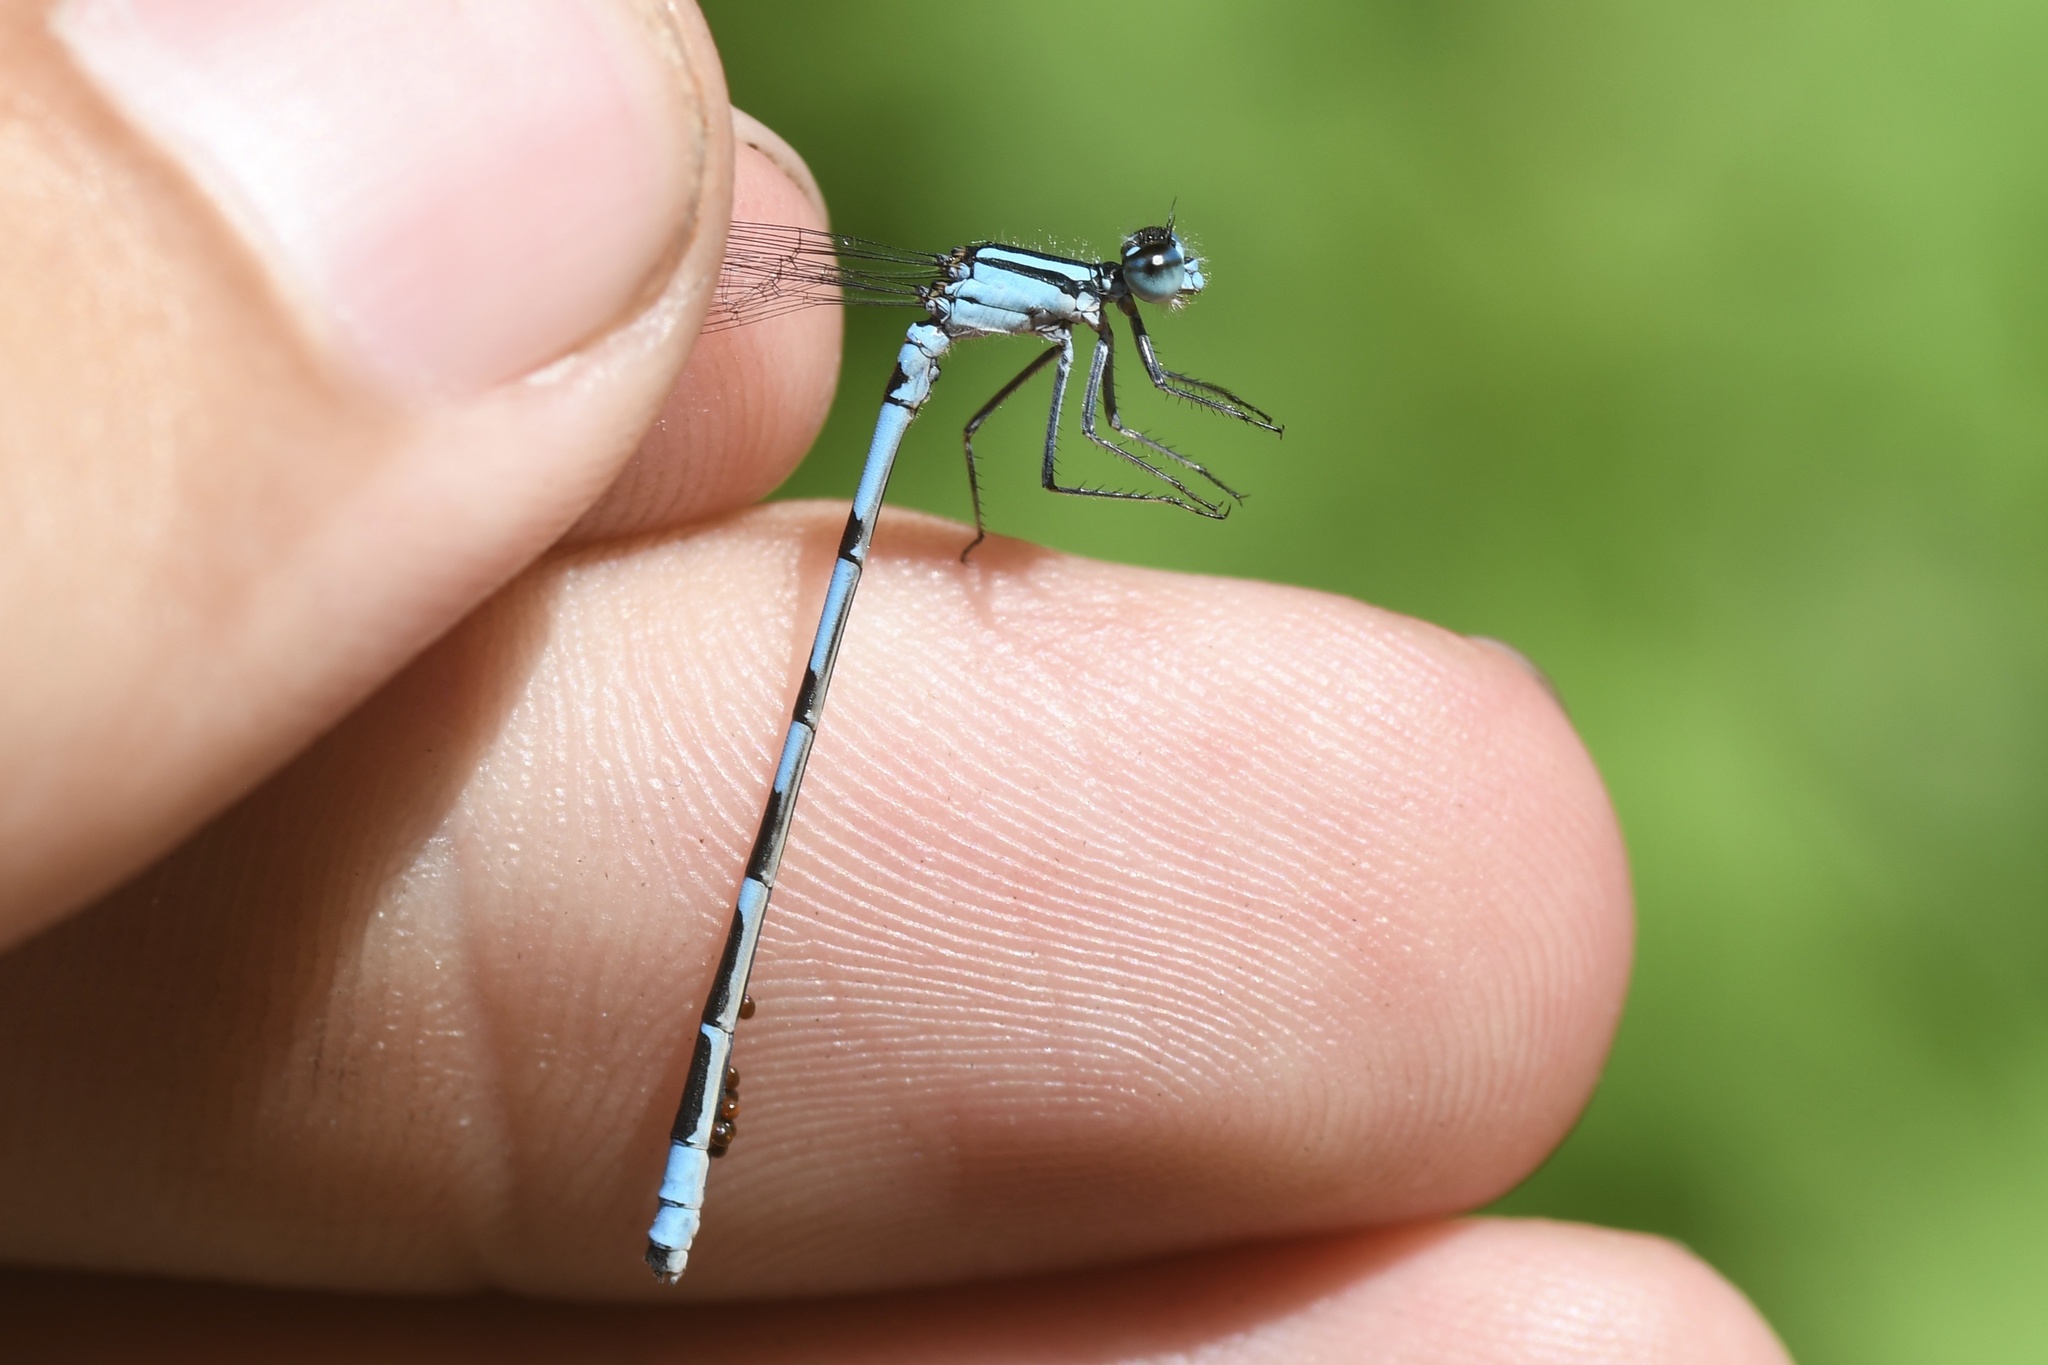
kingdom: Animalia
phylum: Arthropoda
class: Insecta
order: Odonata
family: Coenagrionidae
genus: Enallagma
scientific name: Enallagma hageni
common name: Hagen's bluet
